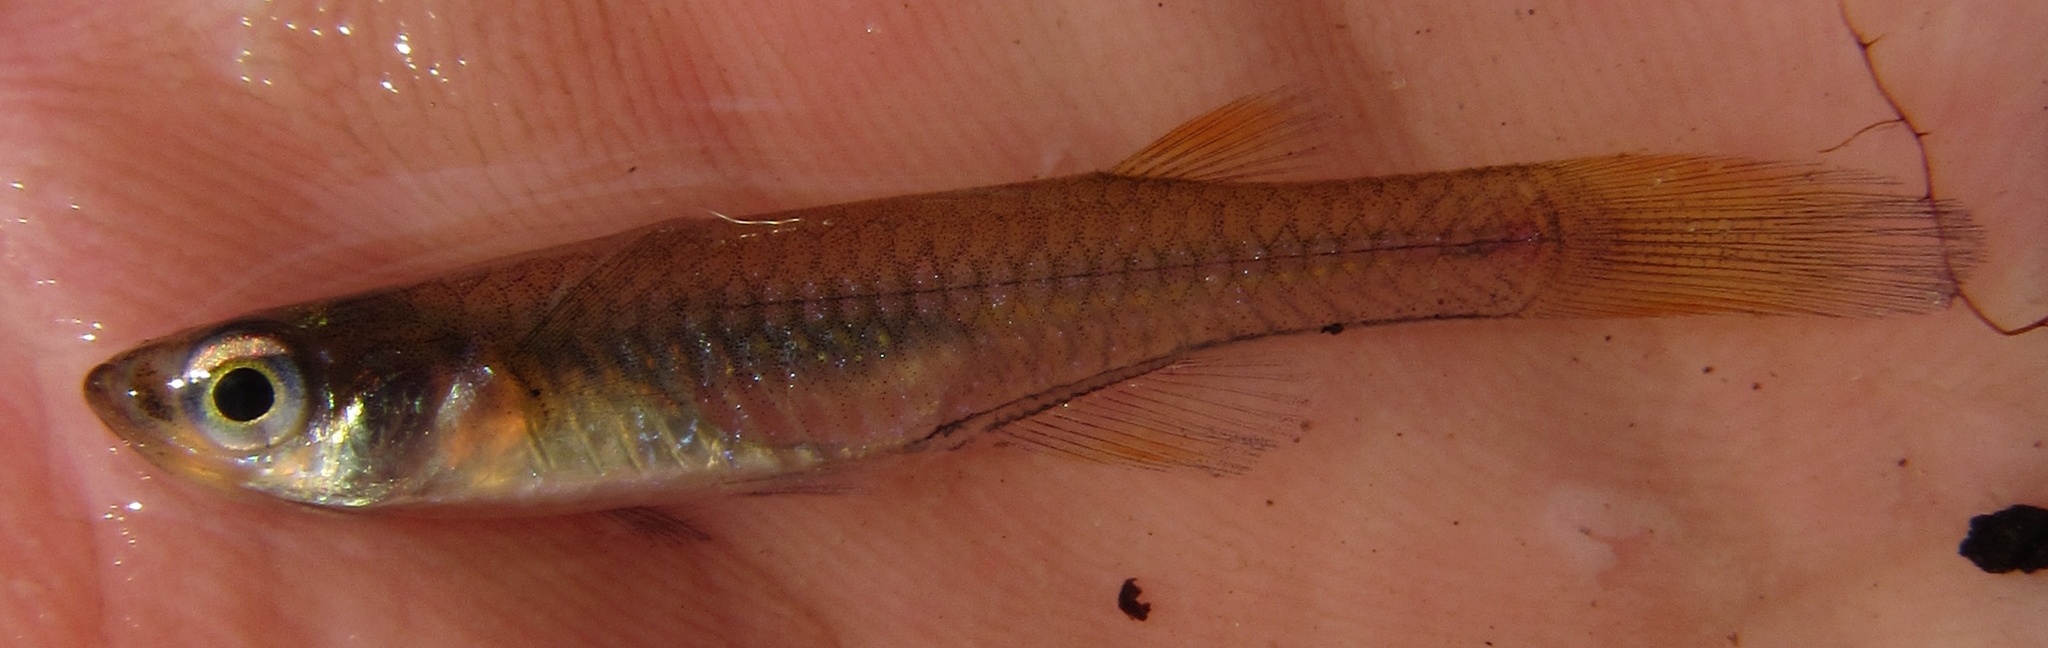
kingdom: Animalia
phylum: Chordata
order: Cyprinodontiformes
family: Poeciliidae
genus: Micropanchax
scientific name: Micropanchax johnstoni
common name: Johnston's topminnow
